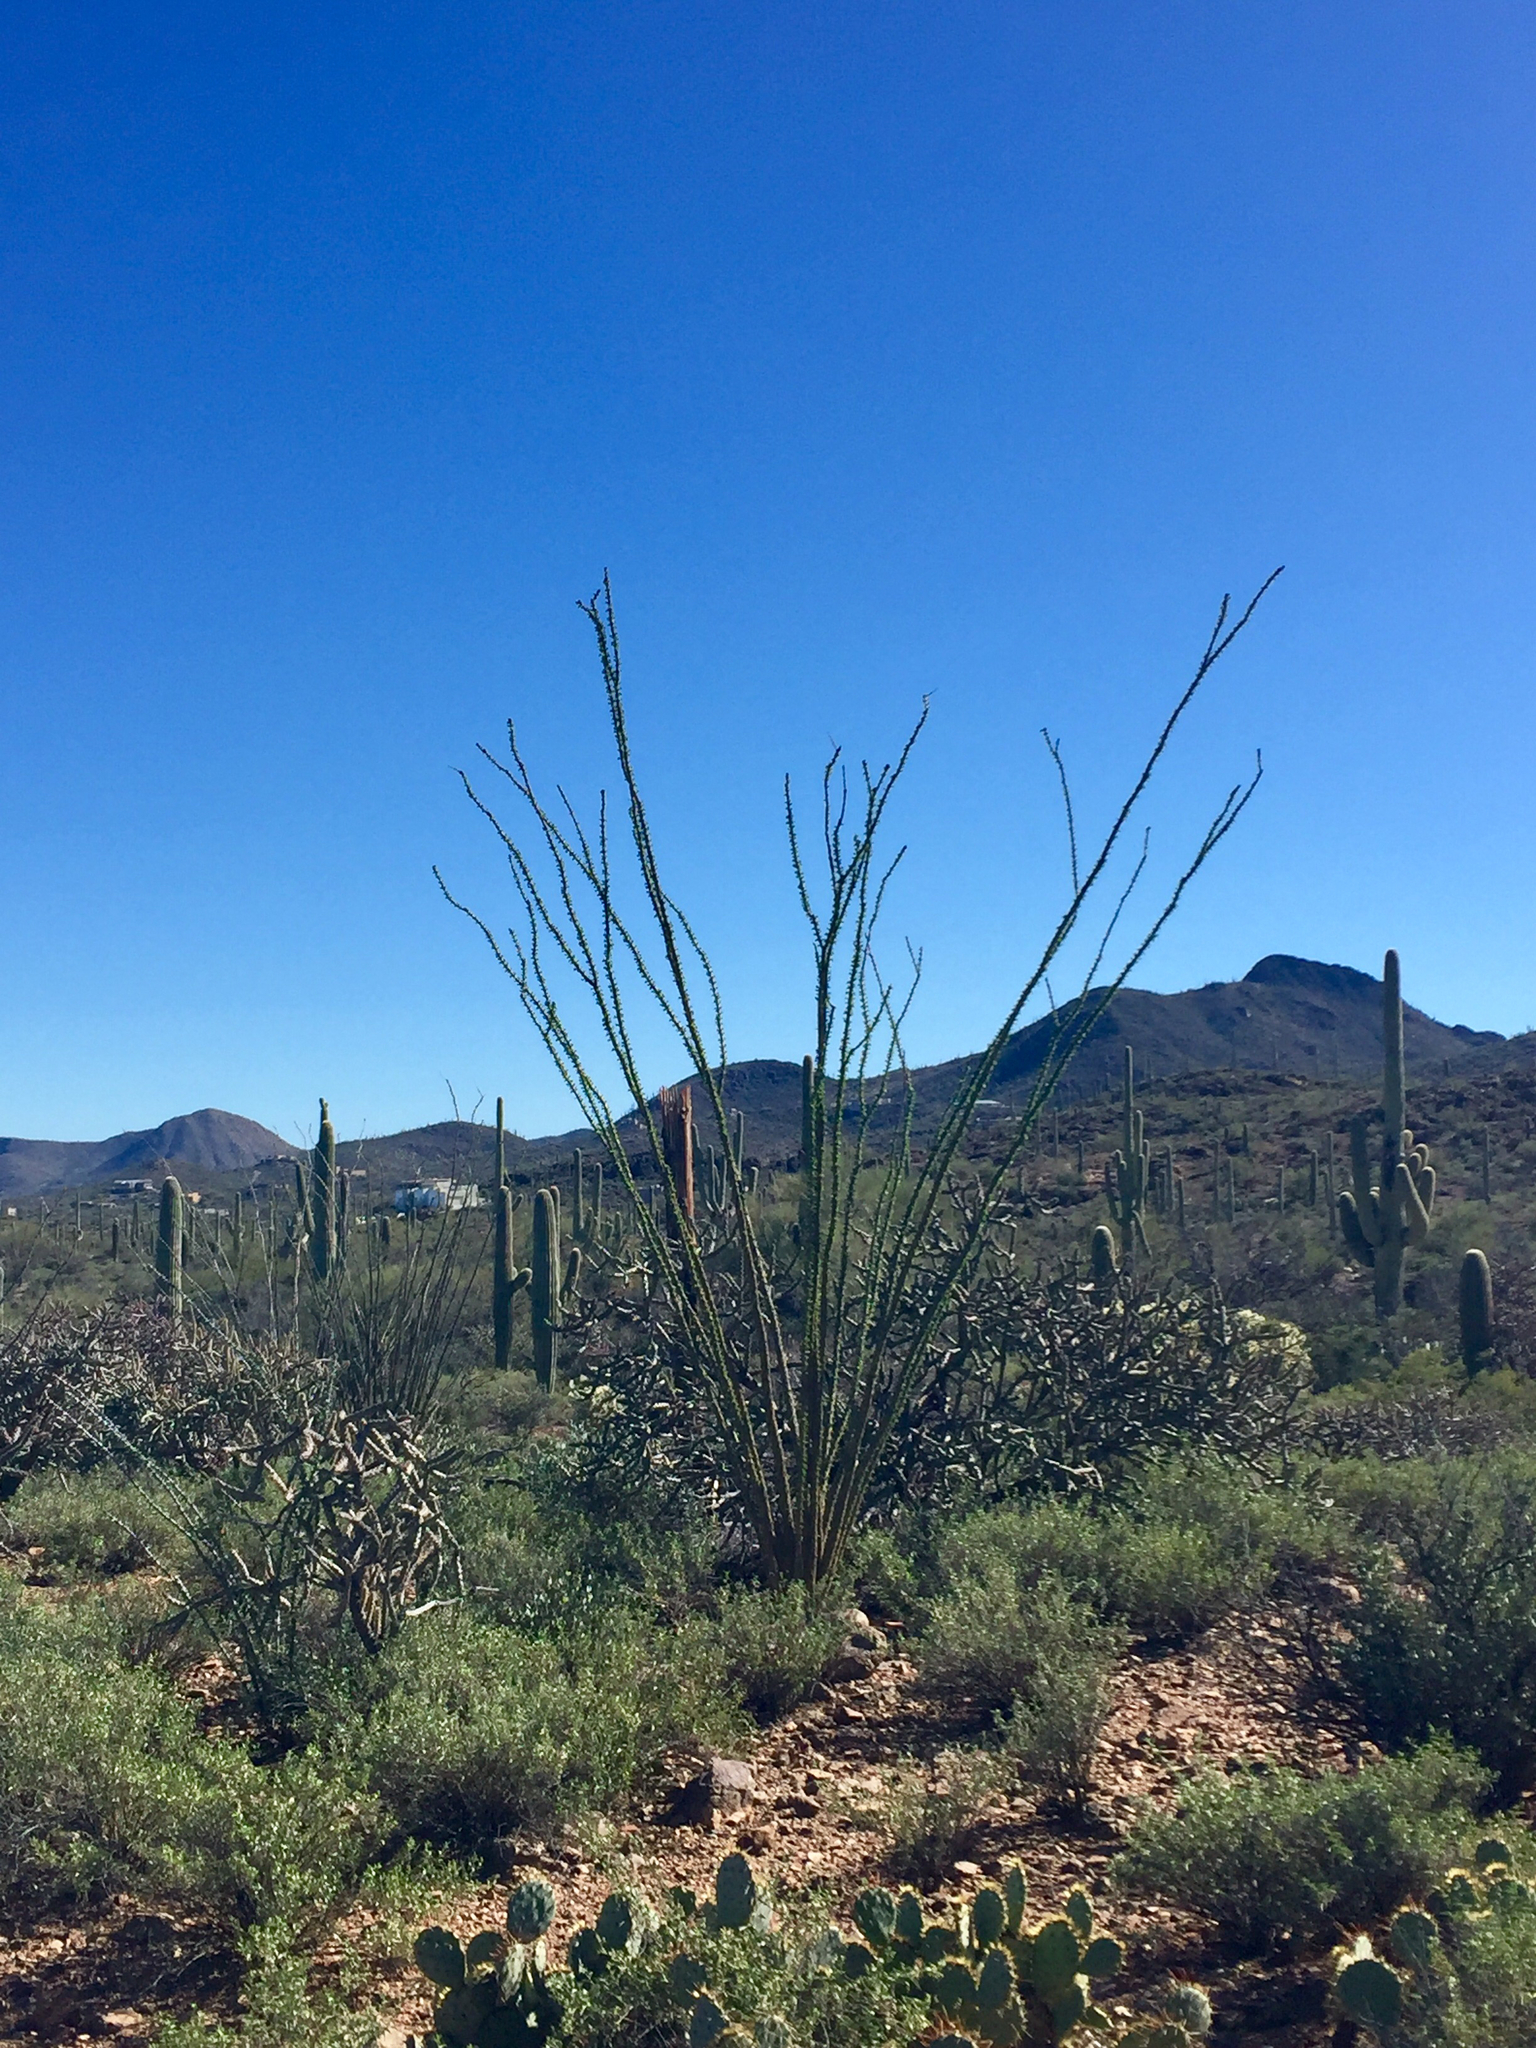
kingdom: Plantae
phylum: Tracheophyta
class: Magnoliopsida
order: Ericales
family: Fouquieriaceae
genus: Fouquieria
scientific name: Fouquieria splendens
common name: Vine-cactus
